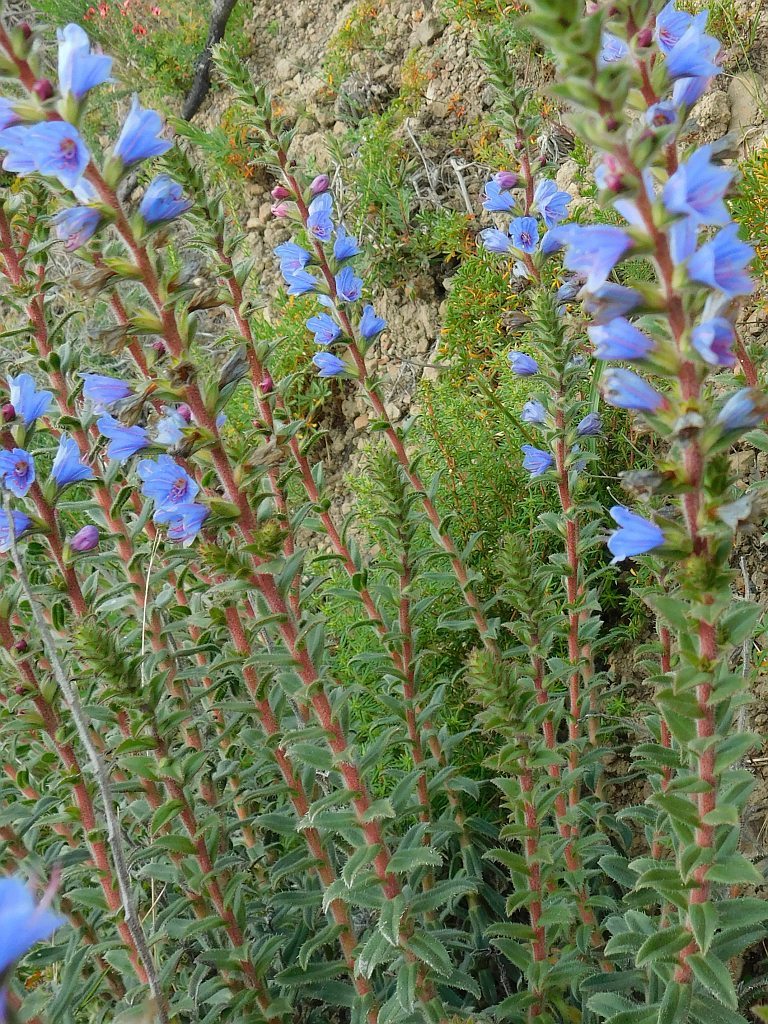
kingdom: Plantae
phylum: Tracheophyta
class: Magnoliopsida
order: Boraginales
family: Boraginaceae
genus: Lobostemon
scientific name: Lobostemon argenteus
